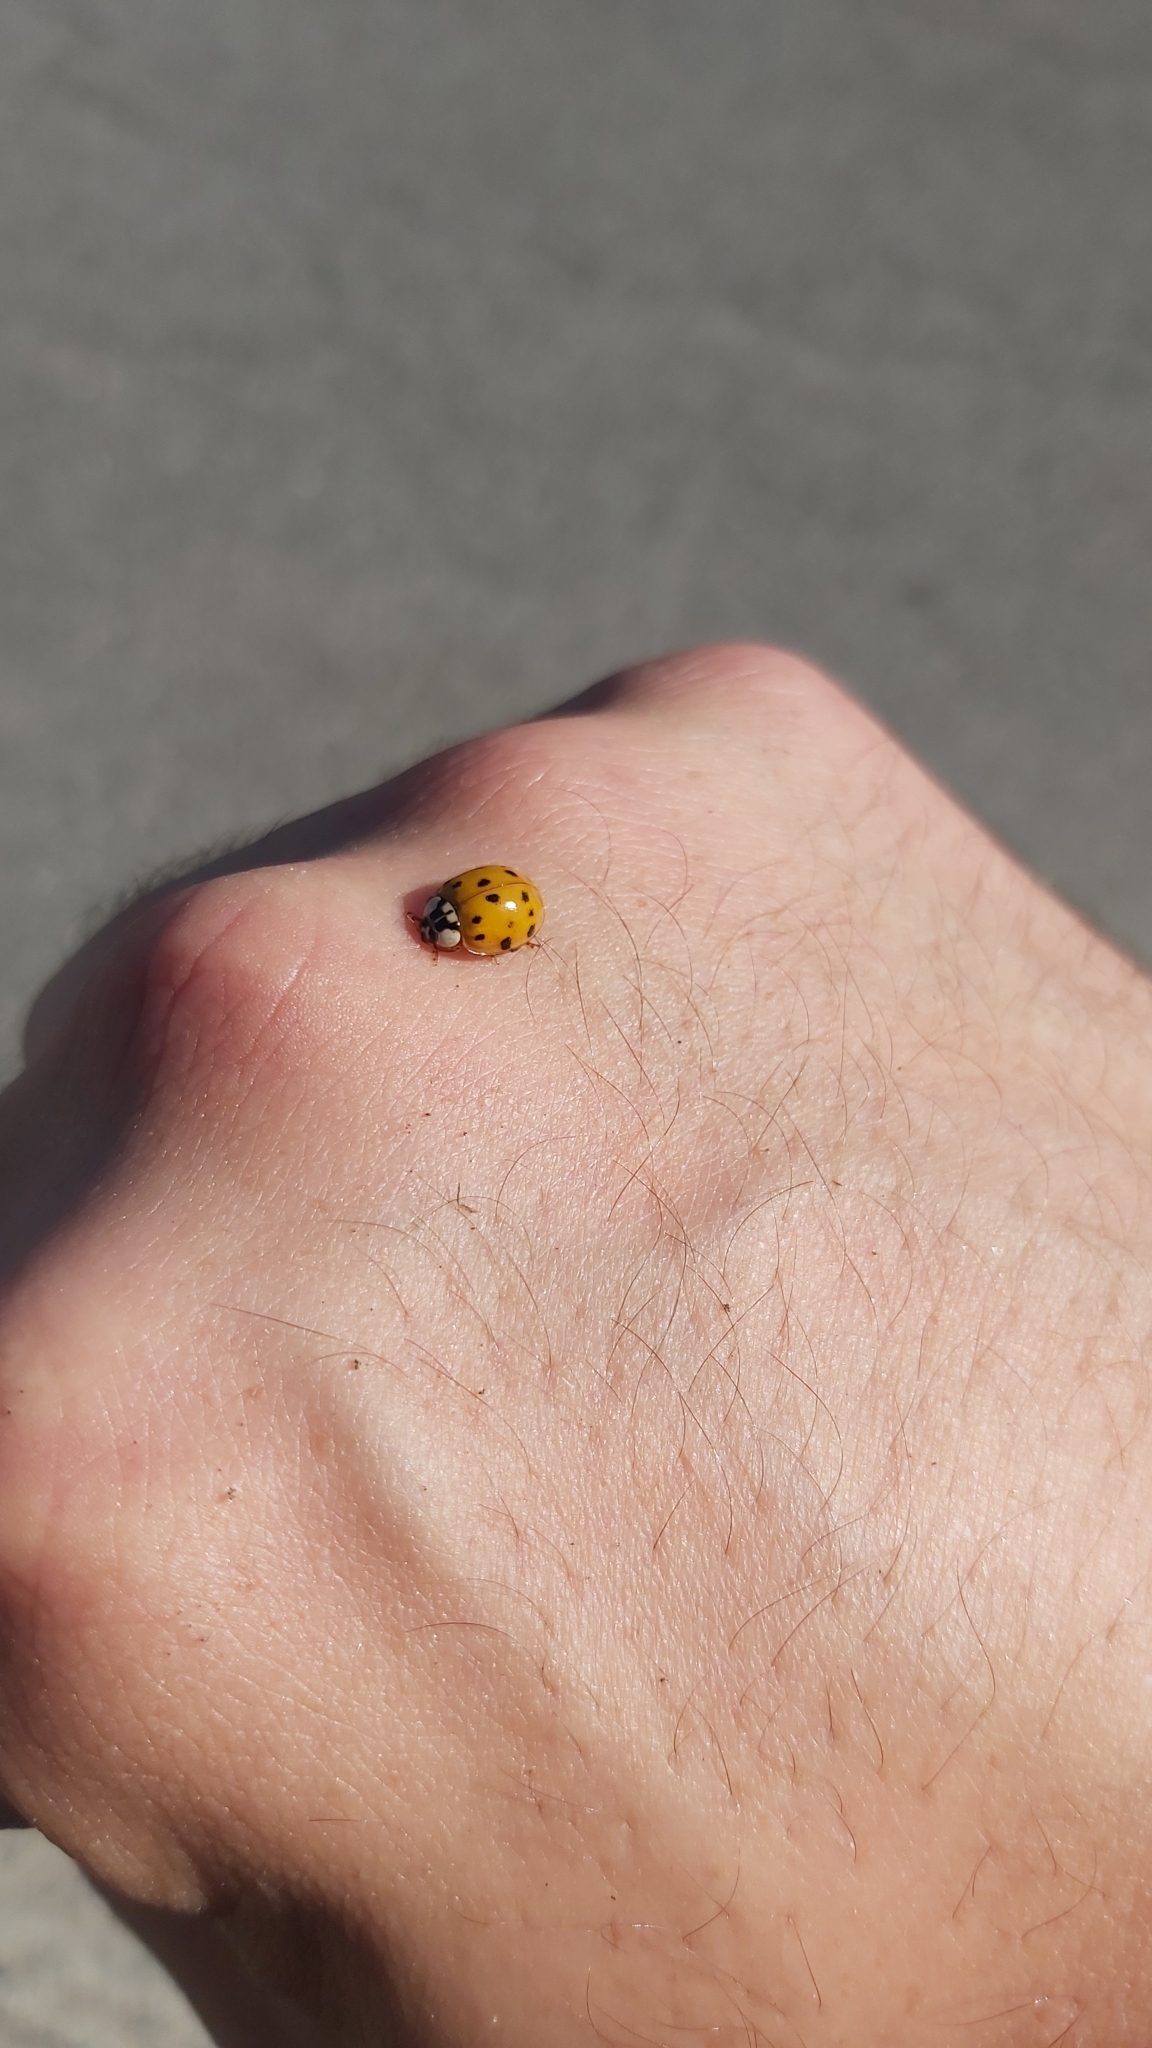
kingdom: Animalia
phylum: Arthropoda
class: Insecta
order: Coleoptera
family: Coccinellidae
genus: Harmonia
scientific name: Harmonia axyridis
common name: Harlequin ladybird
